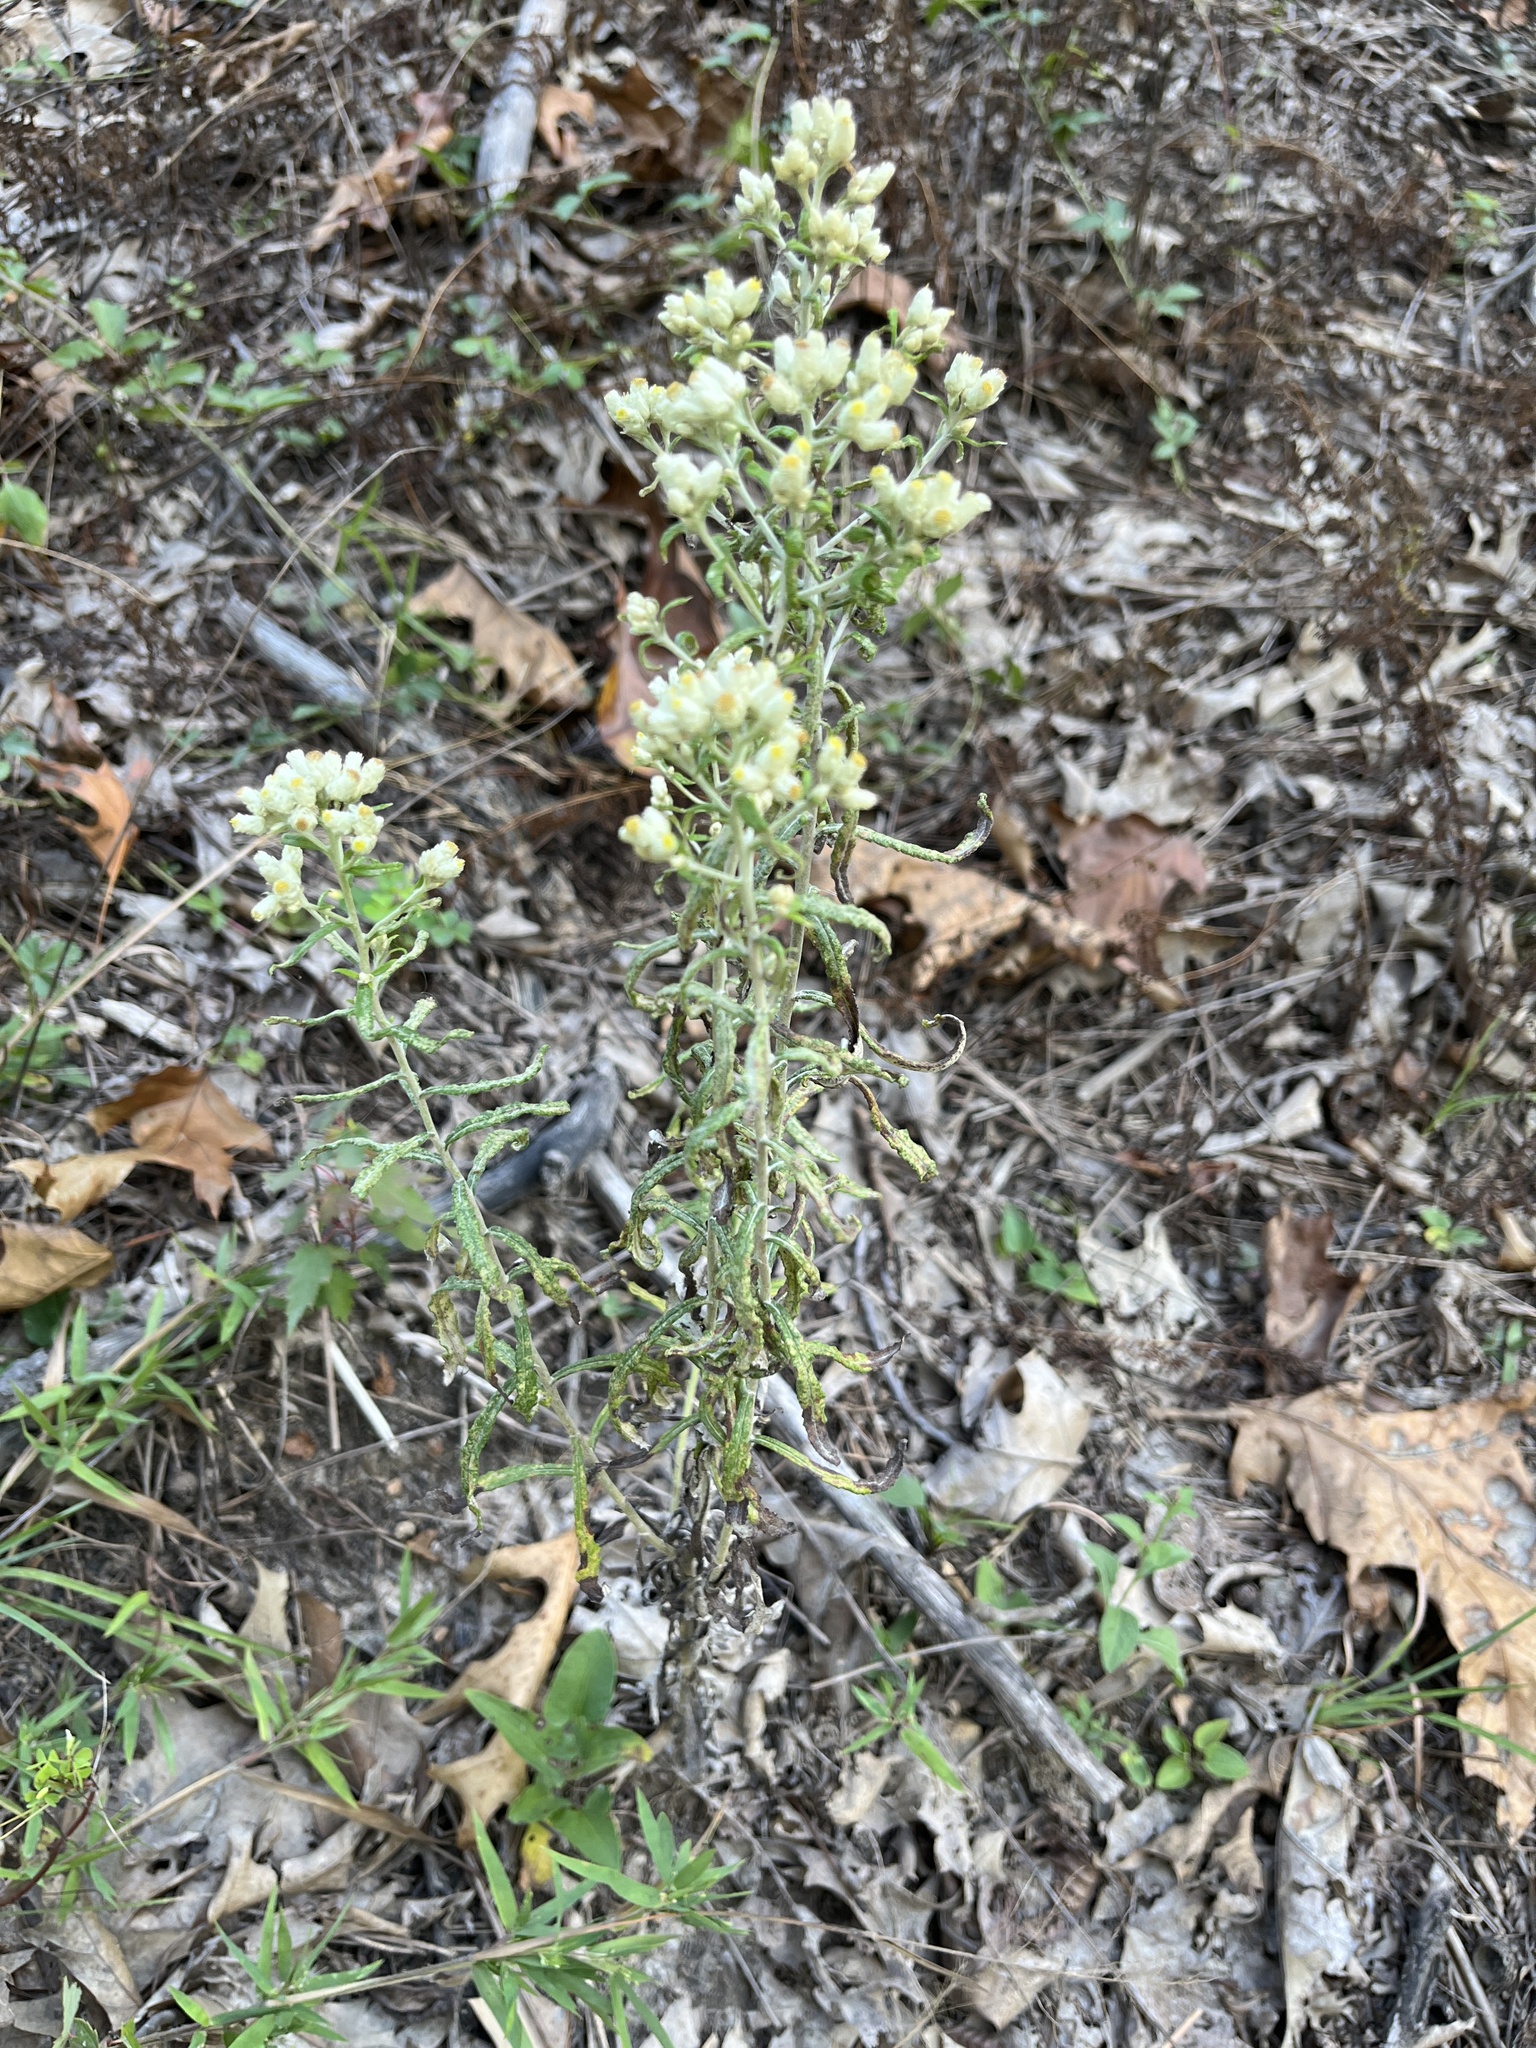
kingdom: Plantae
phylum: Tracheophyta
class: Magnoliopsida
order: Asterales
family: Asteraceae
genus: Pseudognaphalium
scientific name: Pseudognaphalium obtusifolium
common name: Eastern rabbit-tobacco
